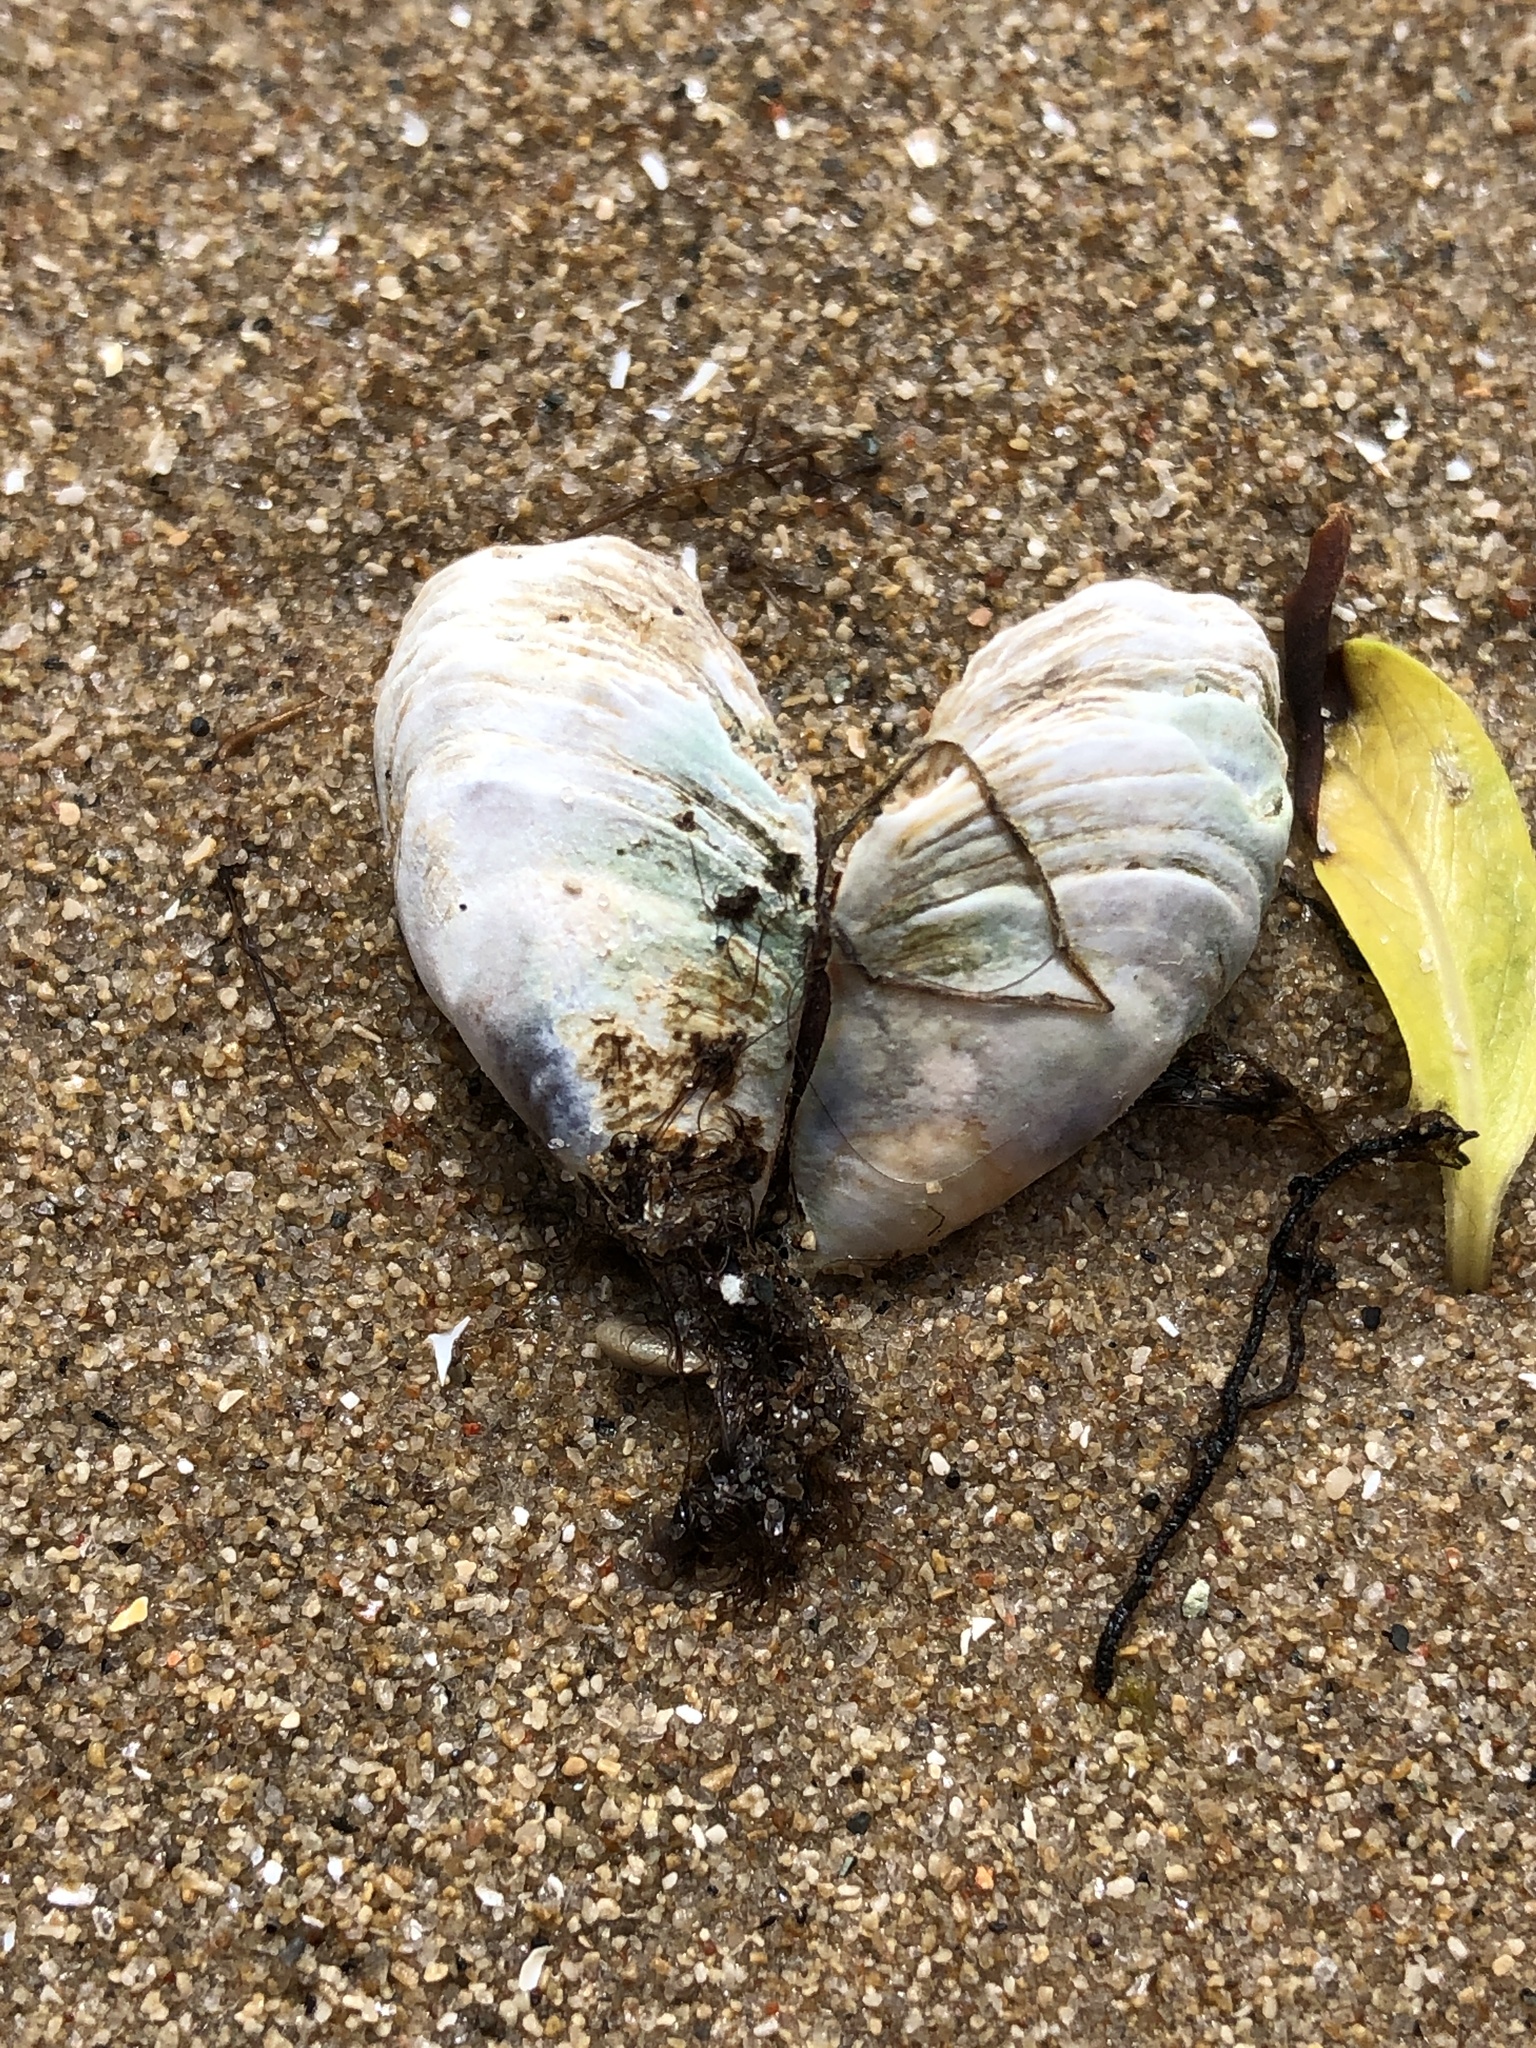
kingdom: Animalia
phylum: Mollusca
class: Bivalvia
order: Myida
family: Dreissenidae
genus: Dreissena
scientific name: Dreissena bugensis
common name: Quagga mussel
